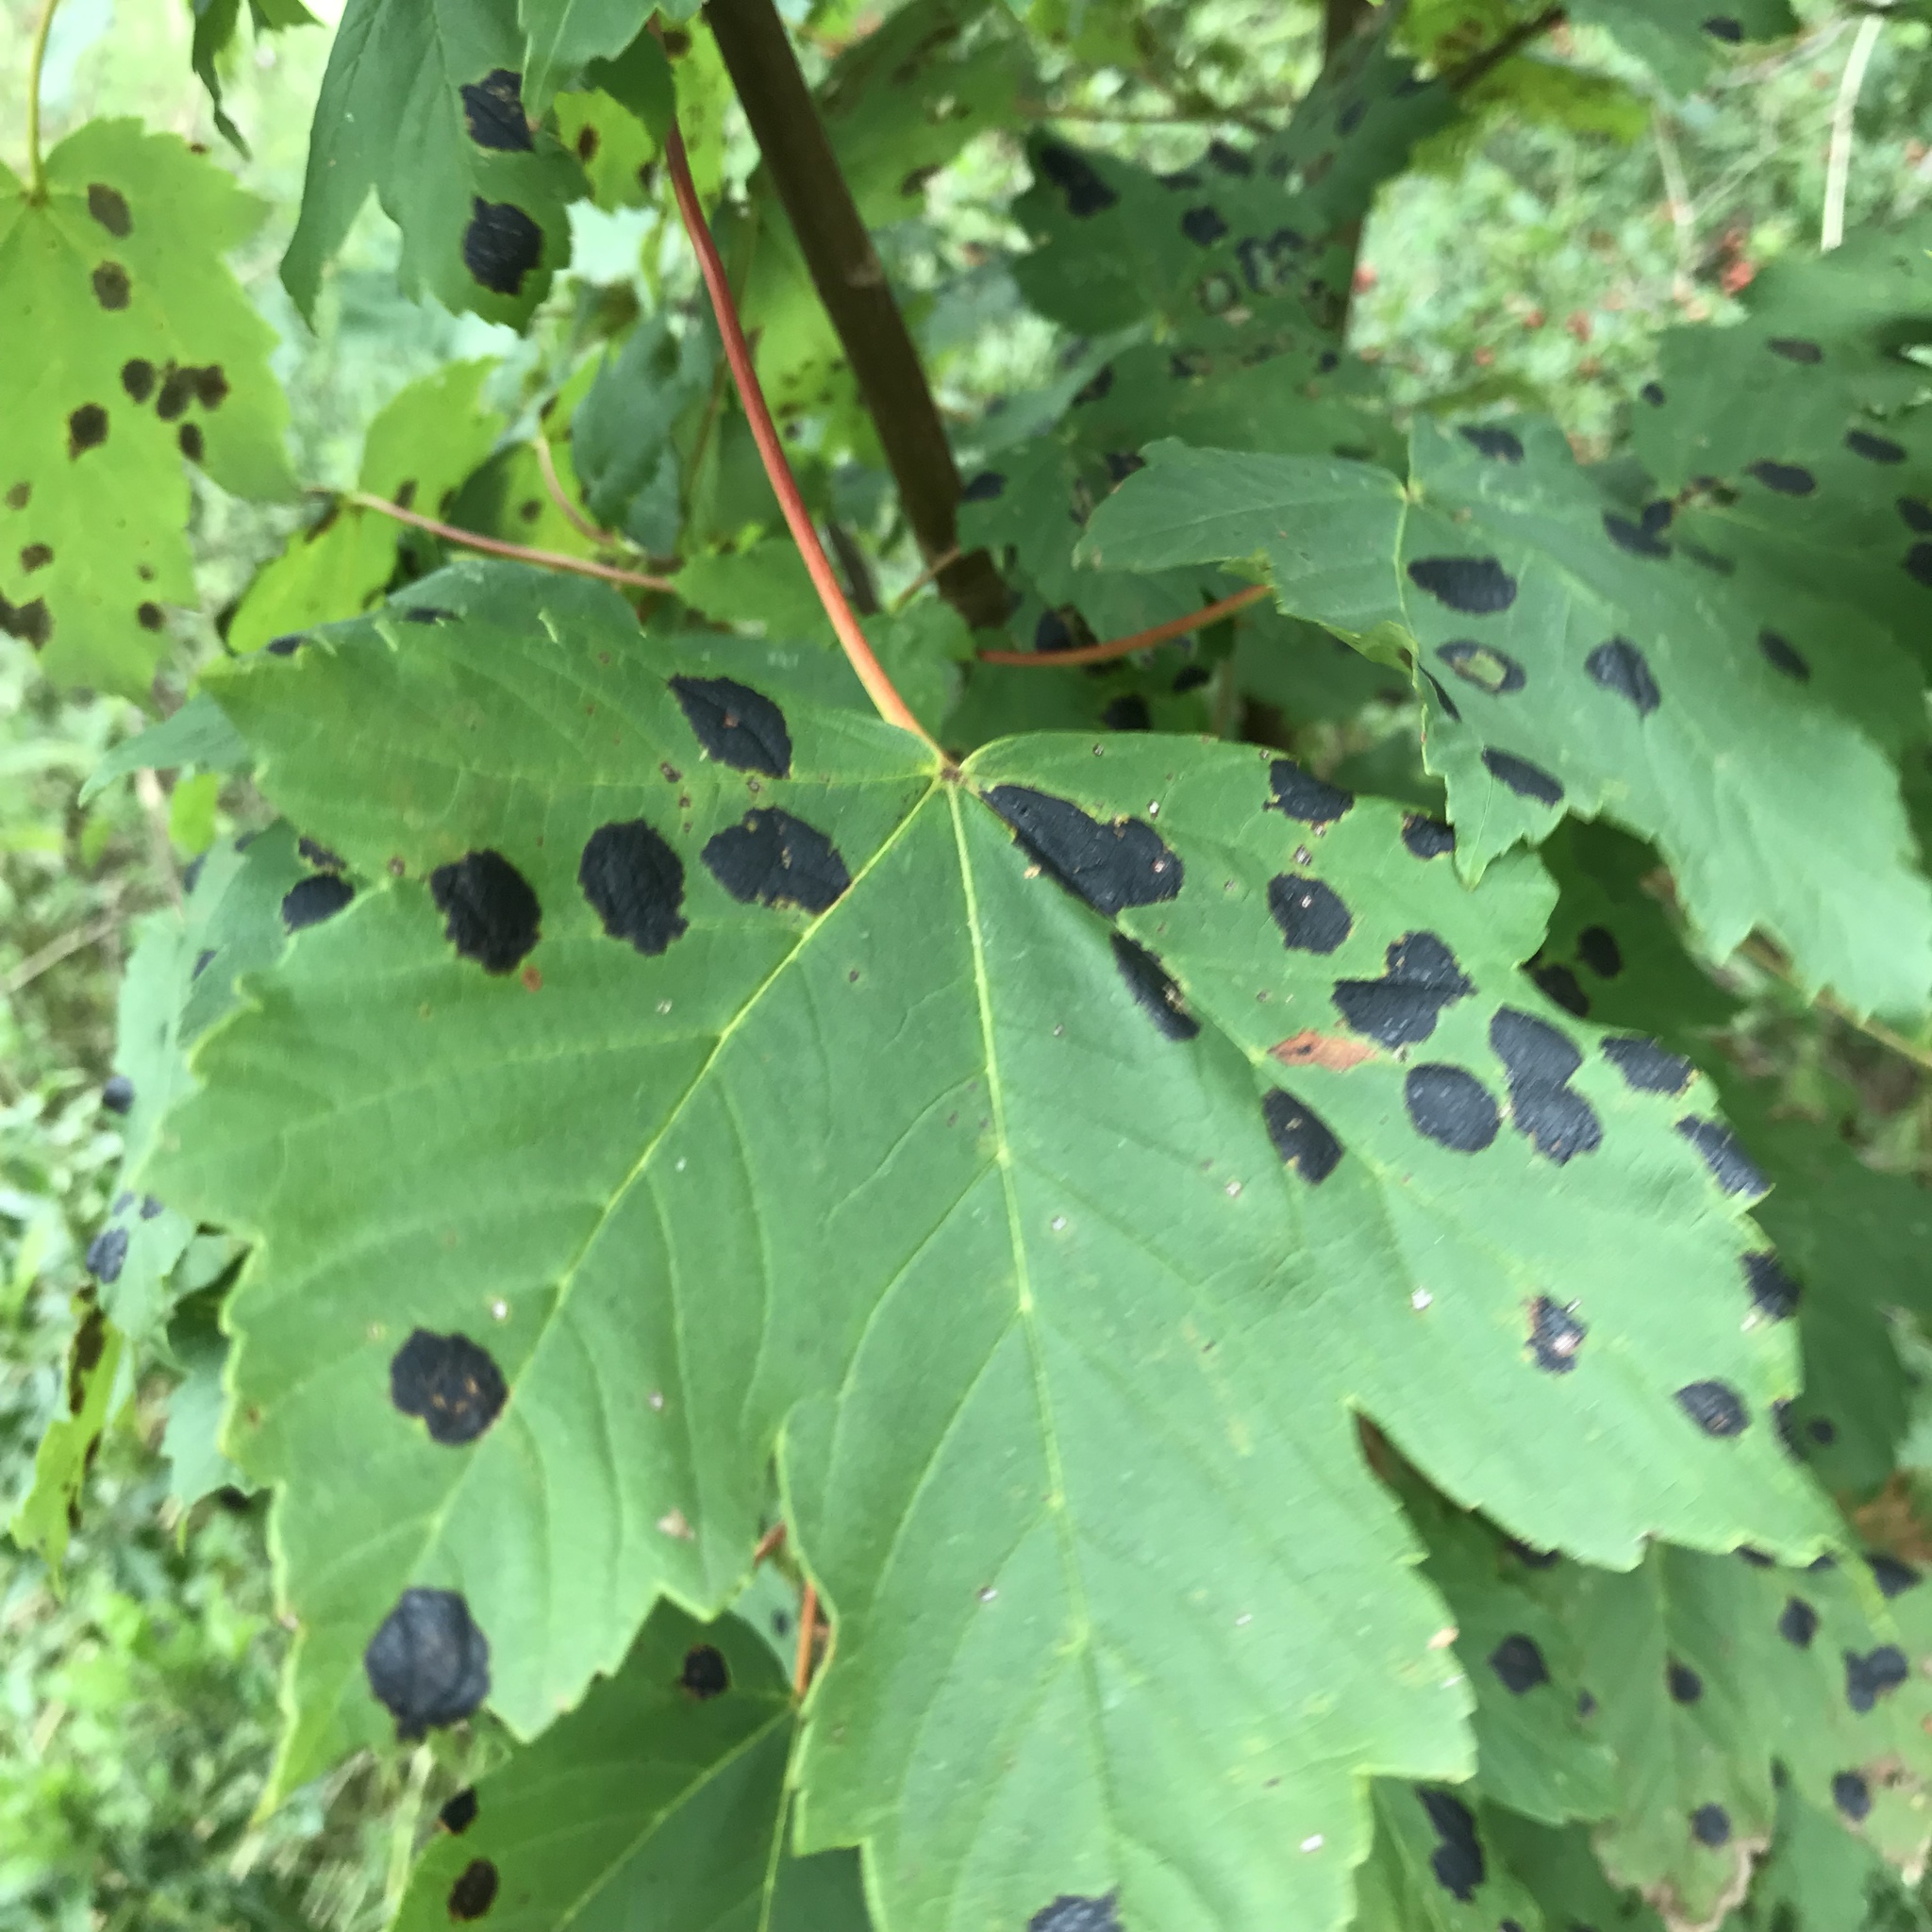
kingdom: Plantae
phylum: Tracheophyta
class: Magnoliopsida
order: Sapindales
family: Sapindaceae
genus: Acer
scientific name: Acer pseudoplatanus
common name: Sycamore
